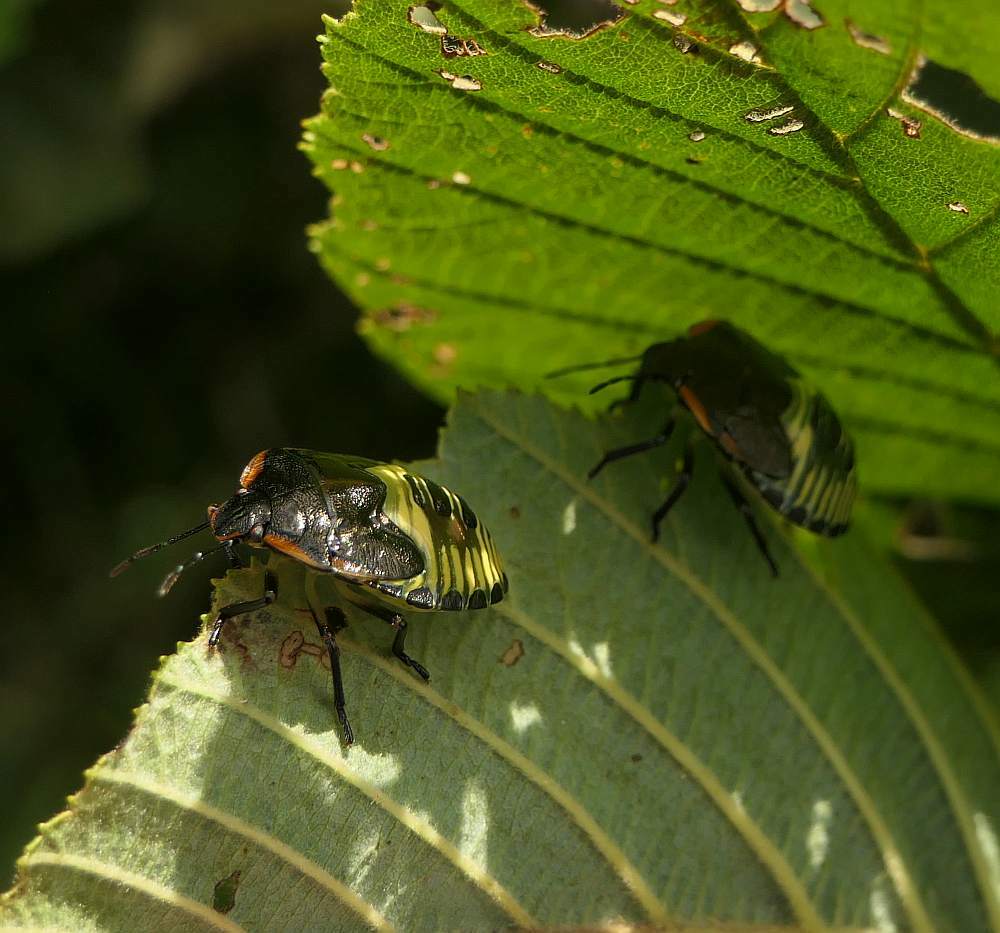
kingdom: Animalia
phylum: Arthropoda
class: Insecta
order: Hemiptera
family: Pentatomidae
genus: Chinavia
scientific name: Chinavia hilaris
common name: Green stink bug
